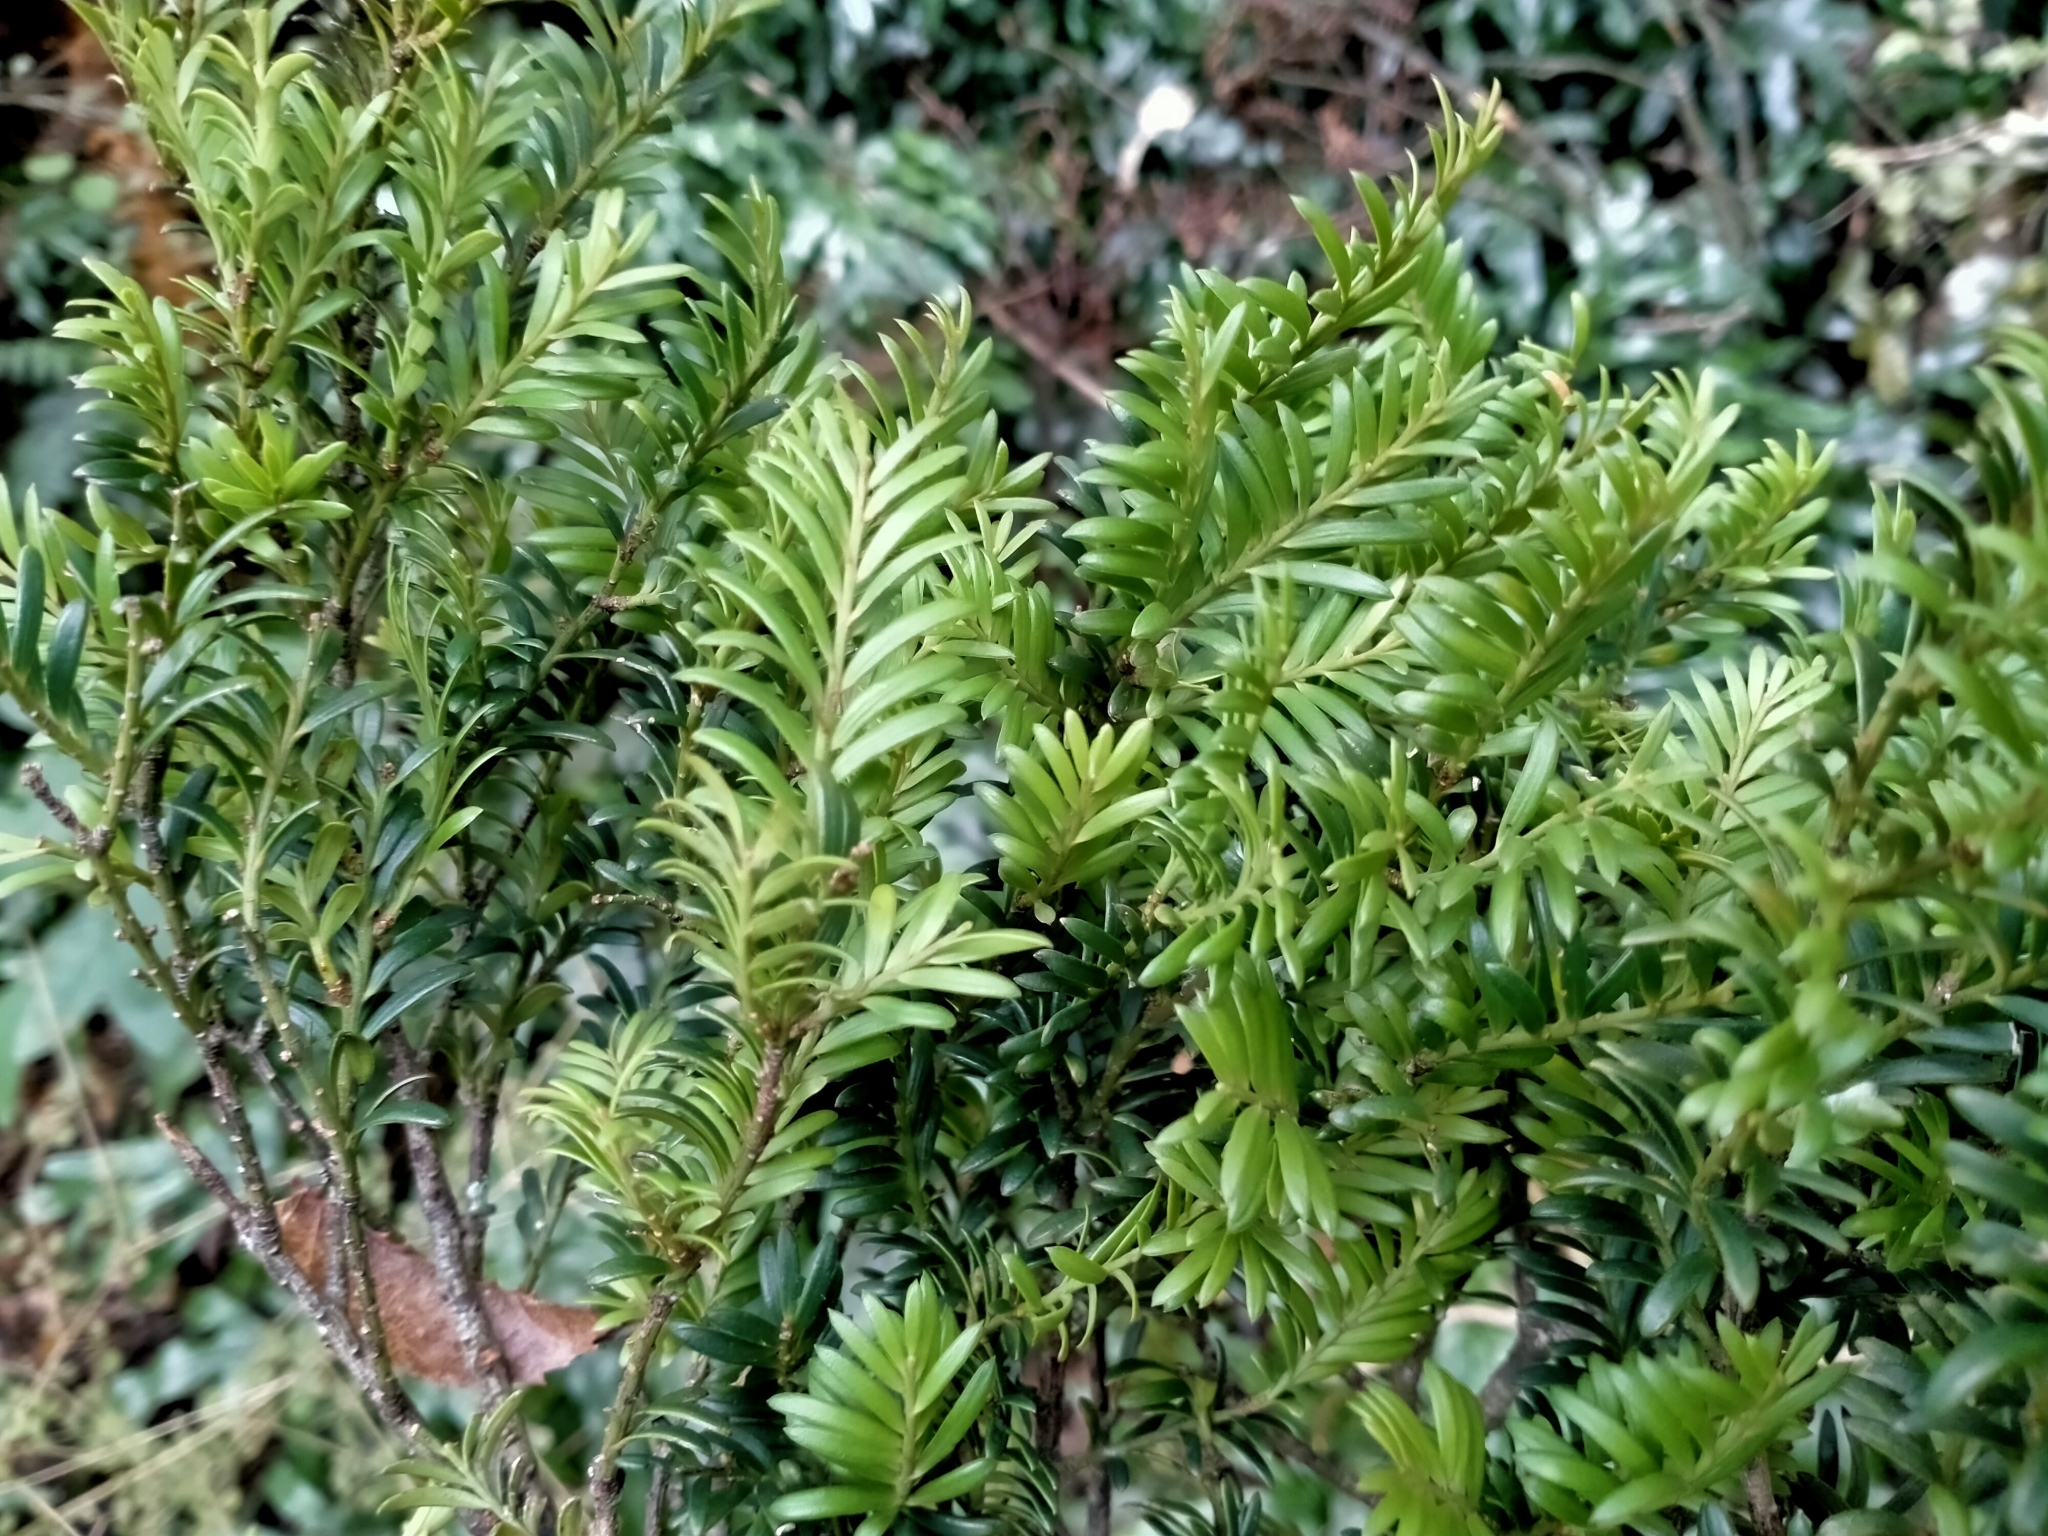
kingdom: Plantae
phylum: Tracheophyta
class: Pinopsida
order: Pinales
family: Podocarpaceae
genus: Prumnopitys
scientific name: Prumnopitys ferruginea
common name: Brown pine
